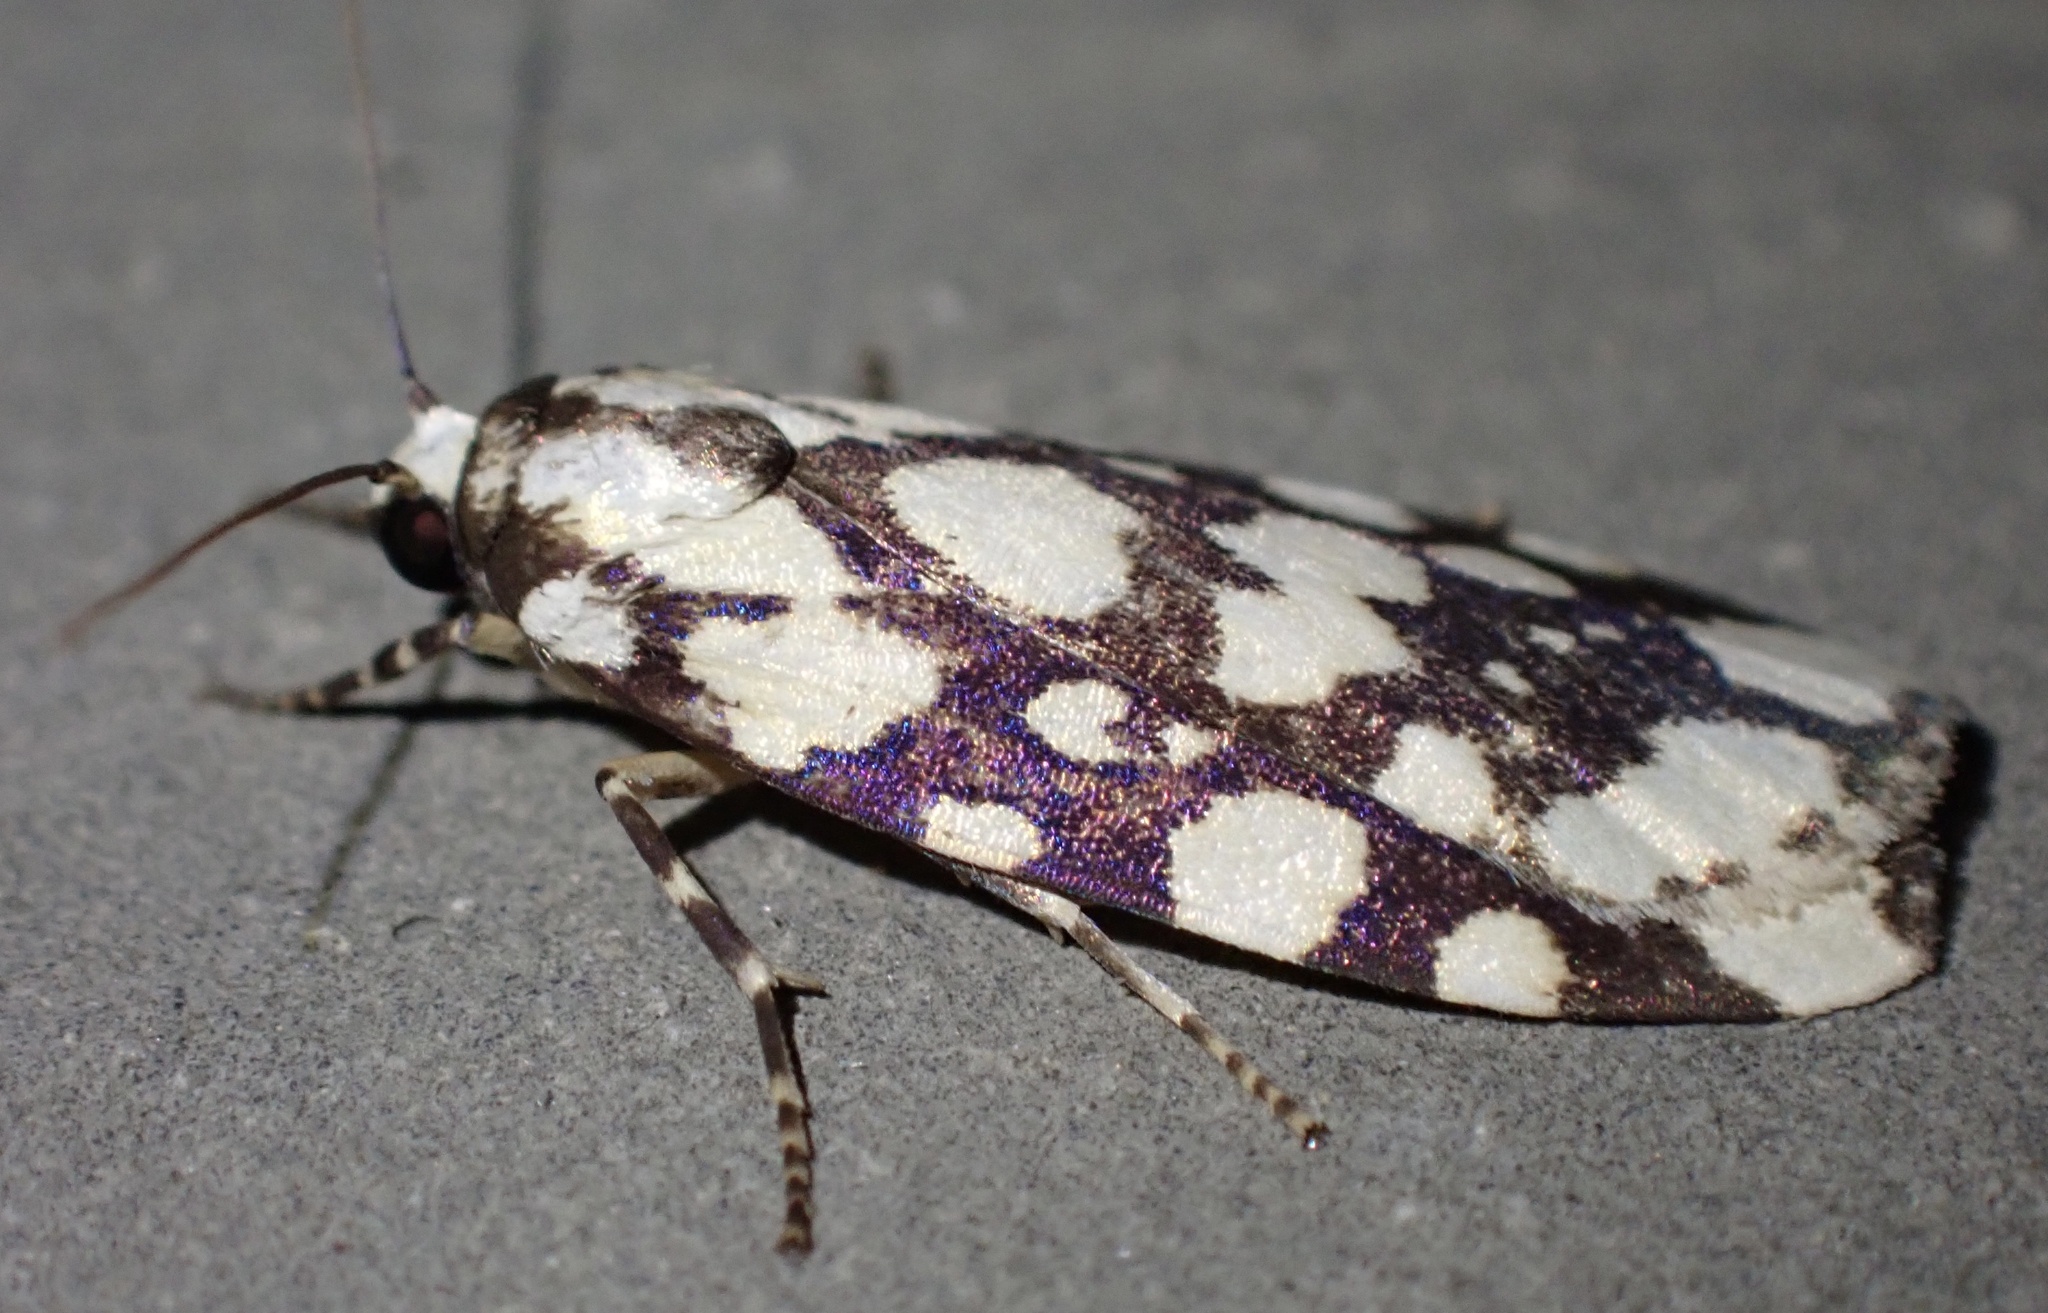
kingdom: Animalia
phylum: Arthropoda
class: Insecta
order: Lepidoptera
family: Erebidae
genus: Cyana
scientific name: Cyana nigroplagata
